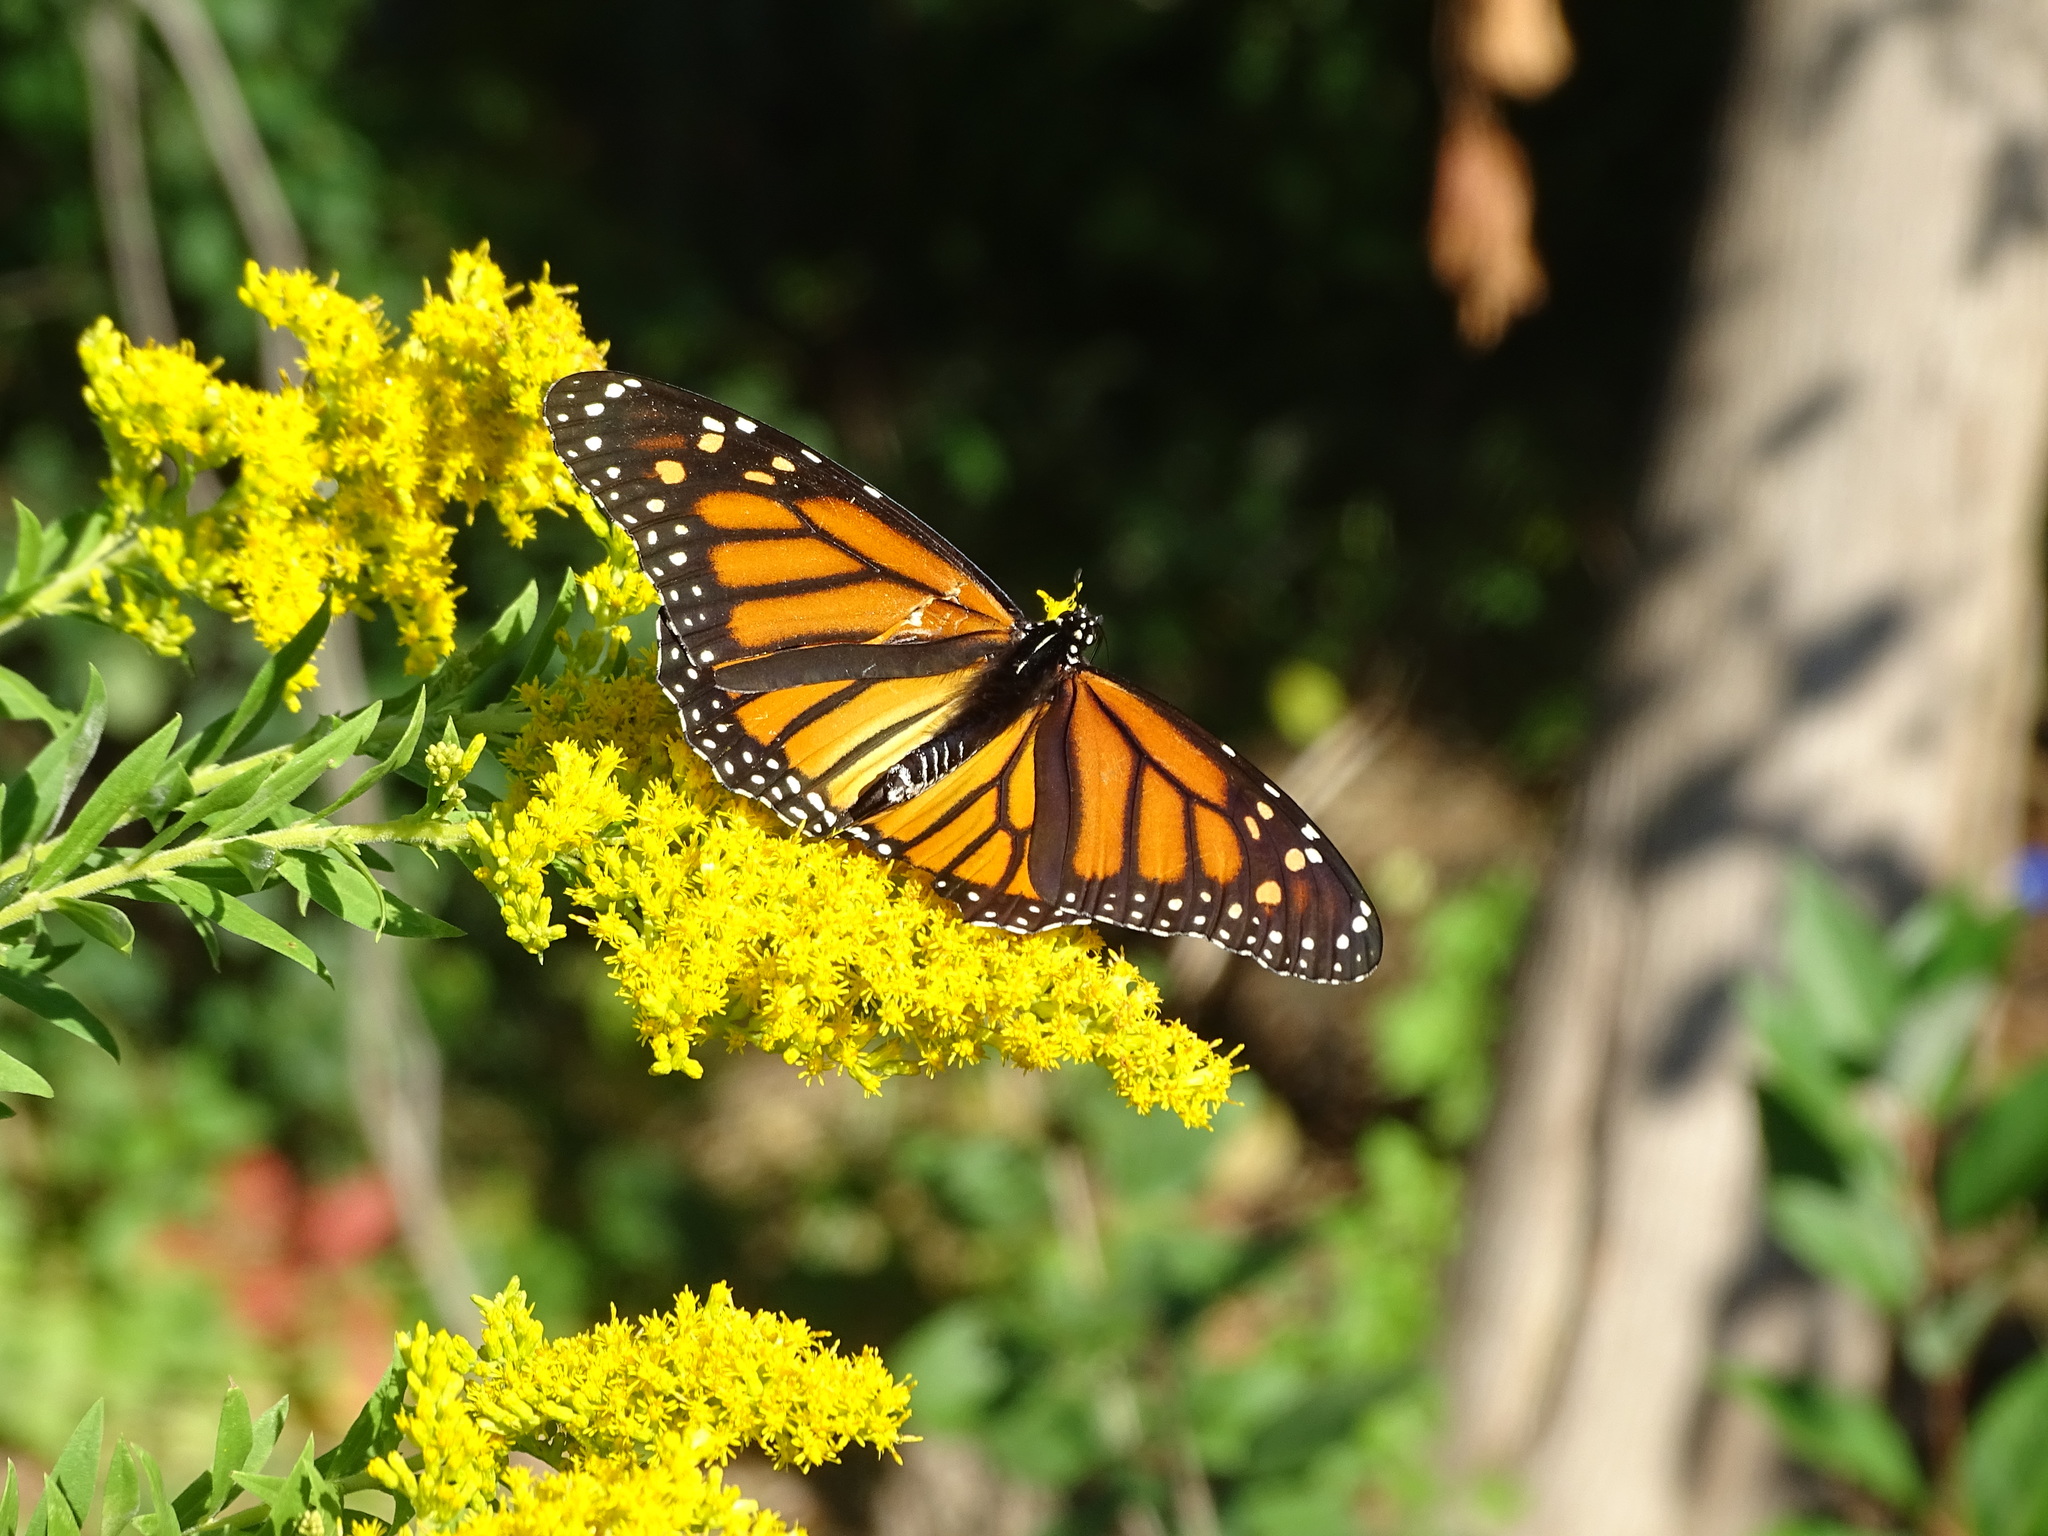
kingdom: Animalia
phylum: Arthropoda
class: Insecta
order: Lepidoptera
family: Nymphalidae
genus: Danaus
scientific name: Danaus plexippus
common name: Monarch
